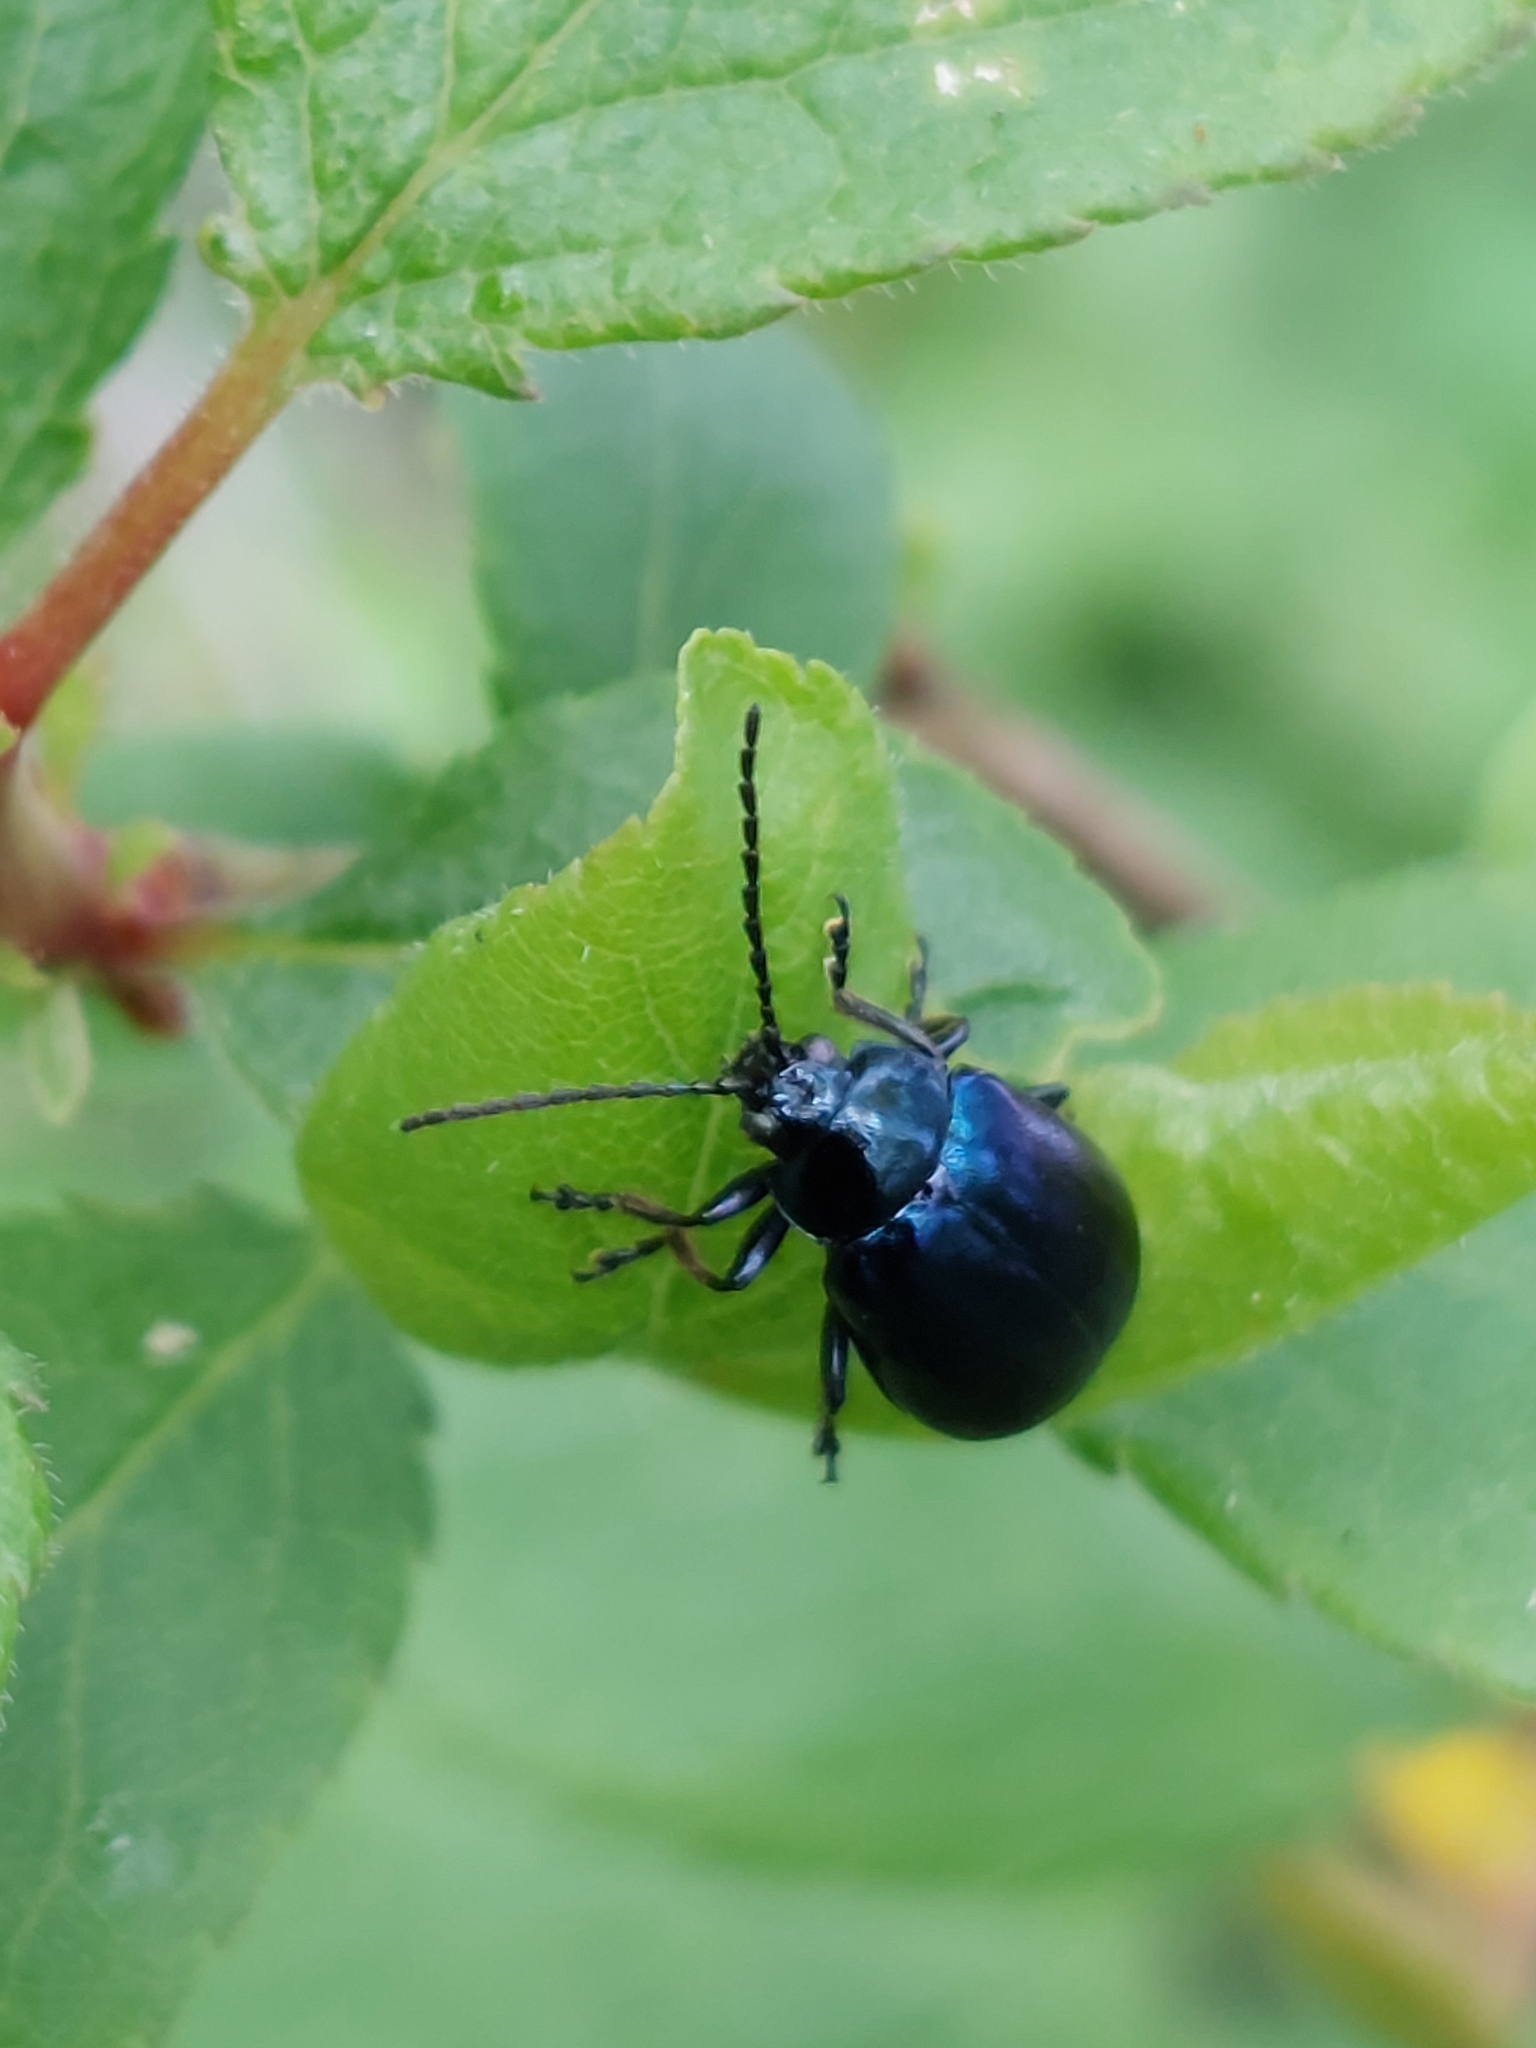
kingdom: Animalia
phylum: Arthropoda
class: Insecta
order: Coleoptera
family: Chrysomelidae
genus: Agelastica
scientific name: Agelastica alni
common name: Alder leaf beetle
